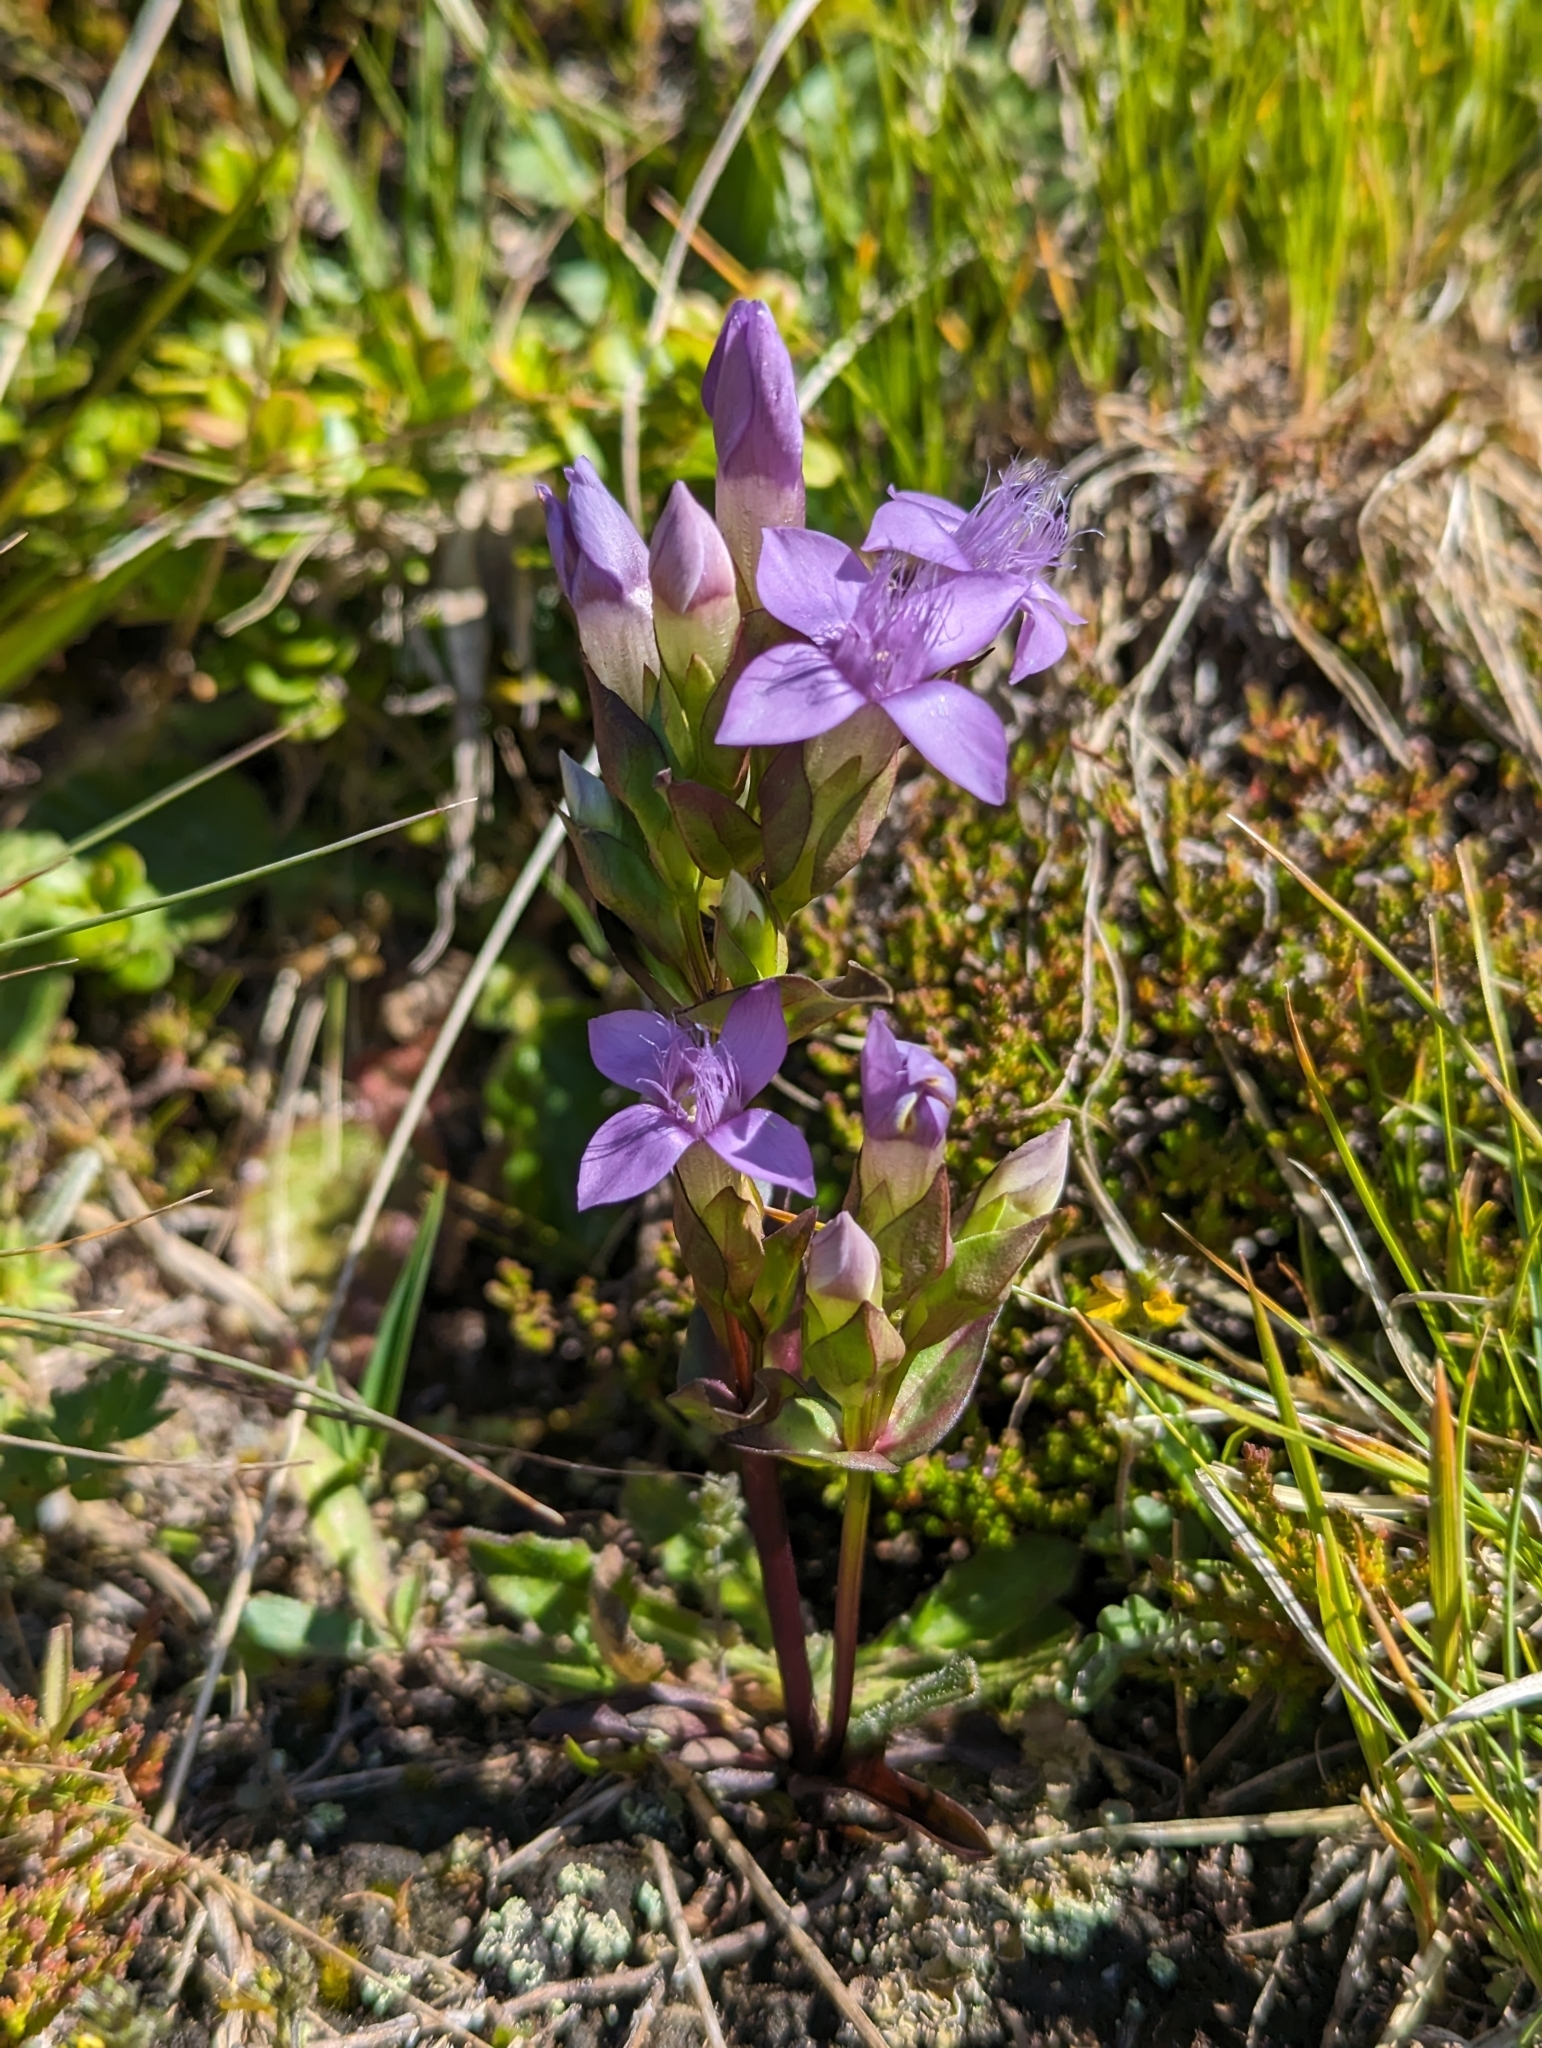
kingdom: Plantae
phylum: Tracheophyta
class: Magnoliopsida
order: Gentianales
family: Gentianaceae
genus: Gentianella
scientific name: Gentianella campestris
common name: Field gentian
